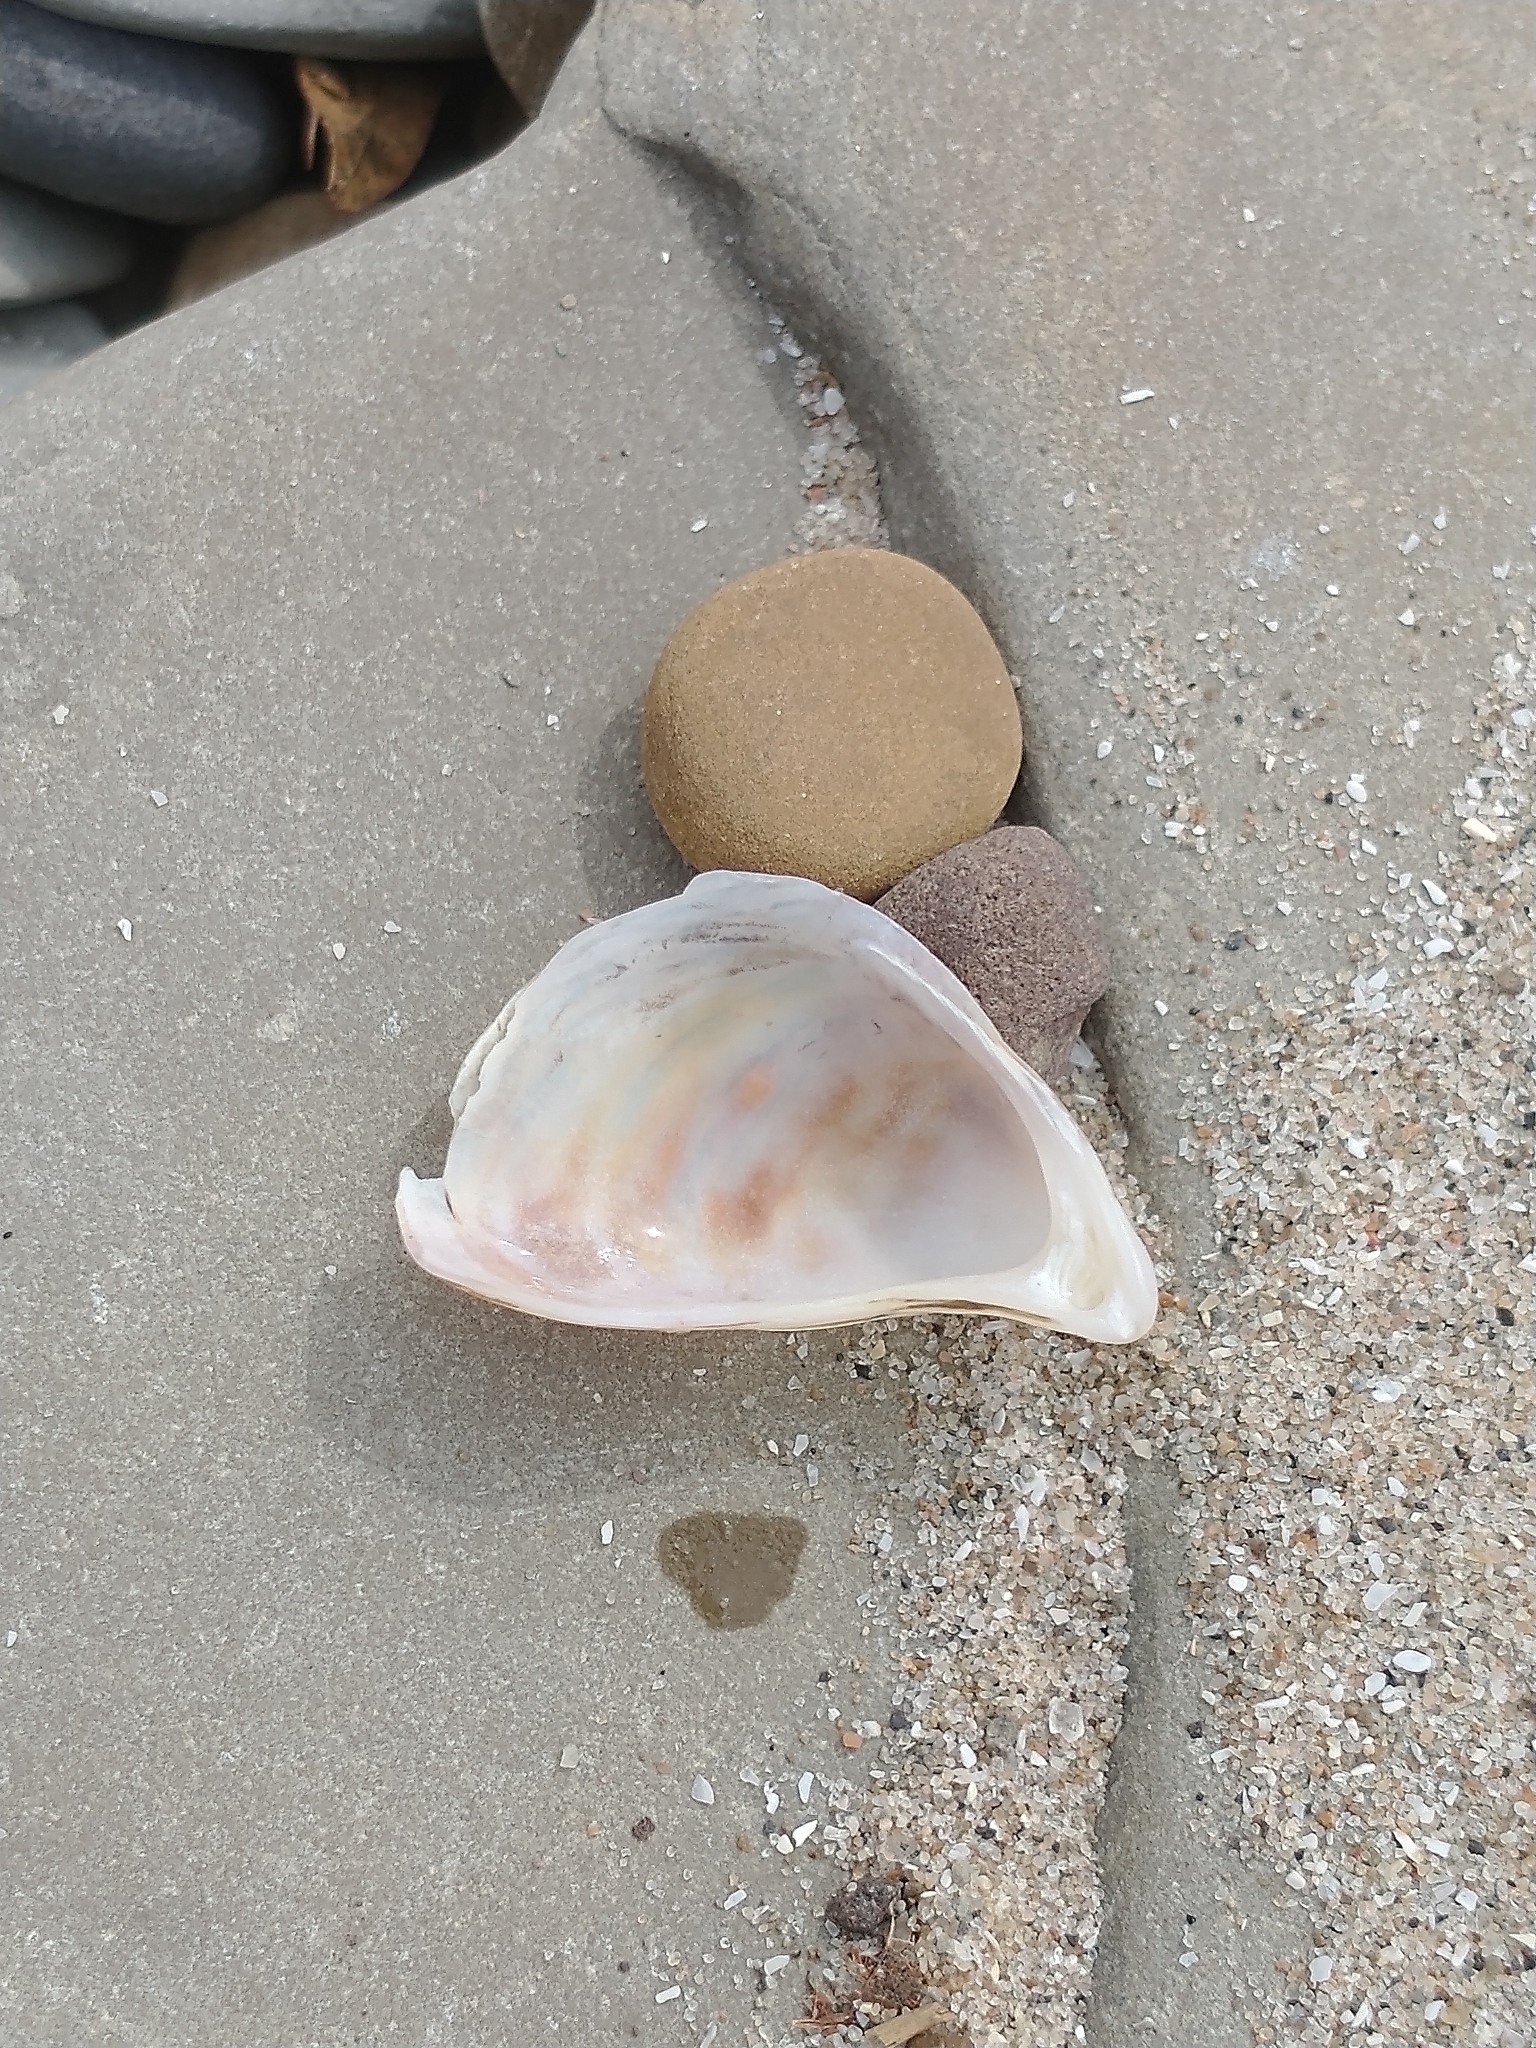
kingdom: Animalia
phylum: Mollusca
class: Bivalvia
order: Myida
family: Dreissenidae
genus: Dreissena
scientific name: Dreissena bugensis
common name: Quagga mussel
